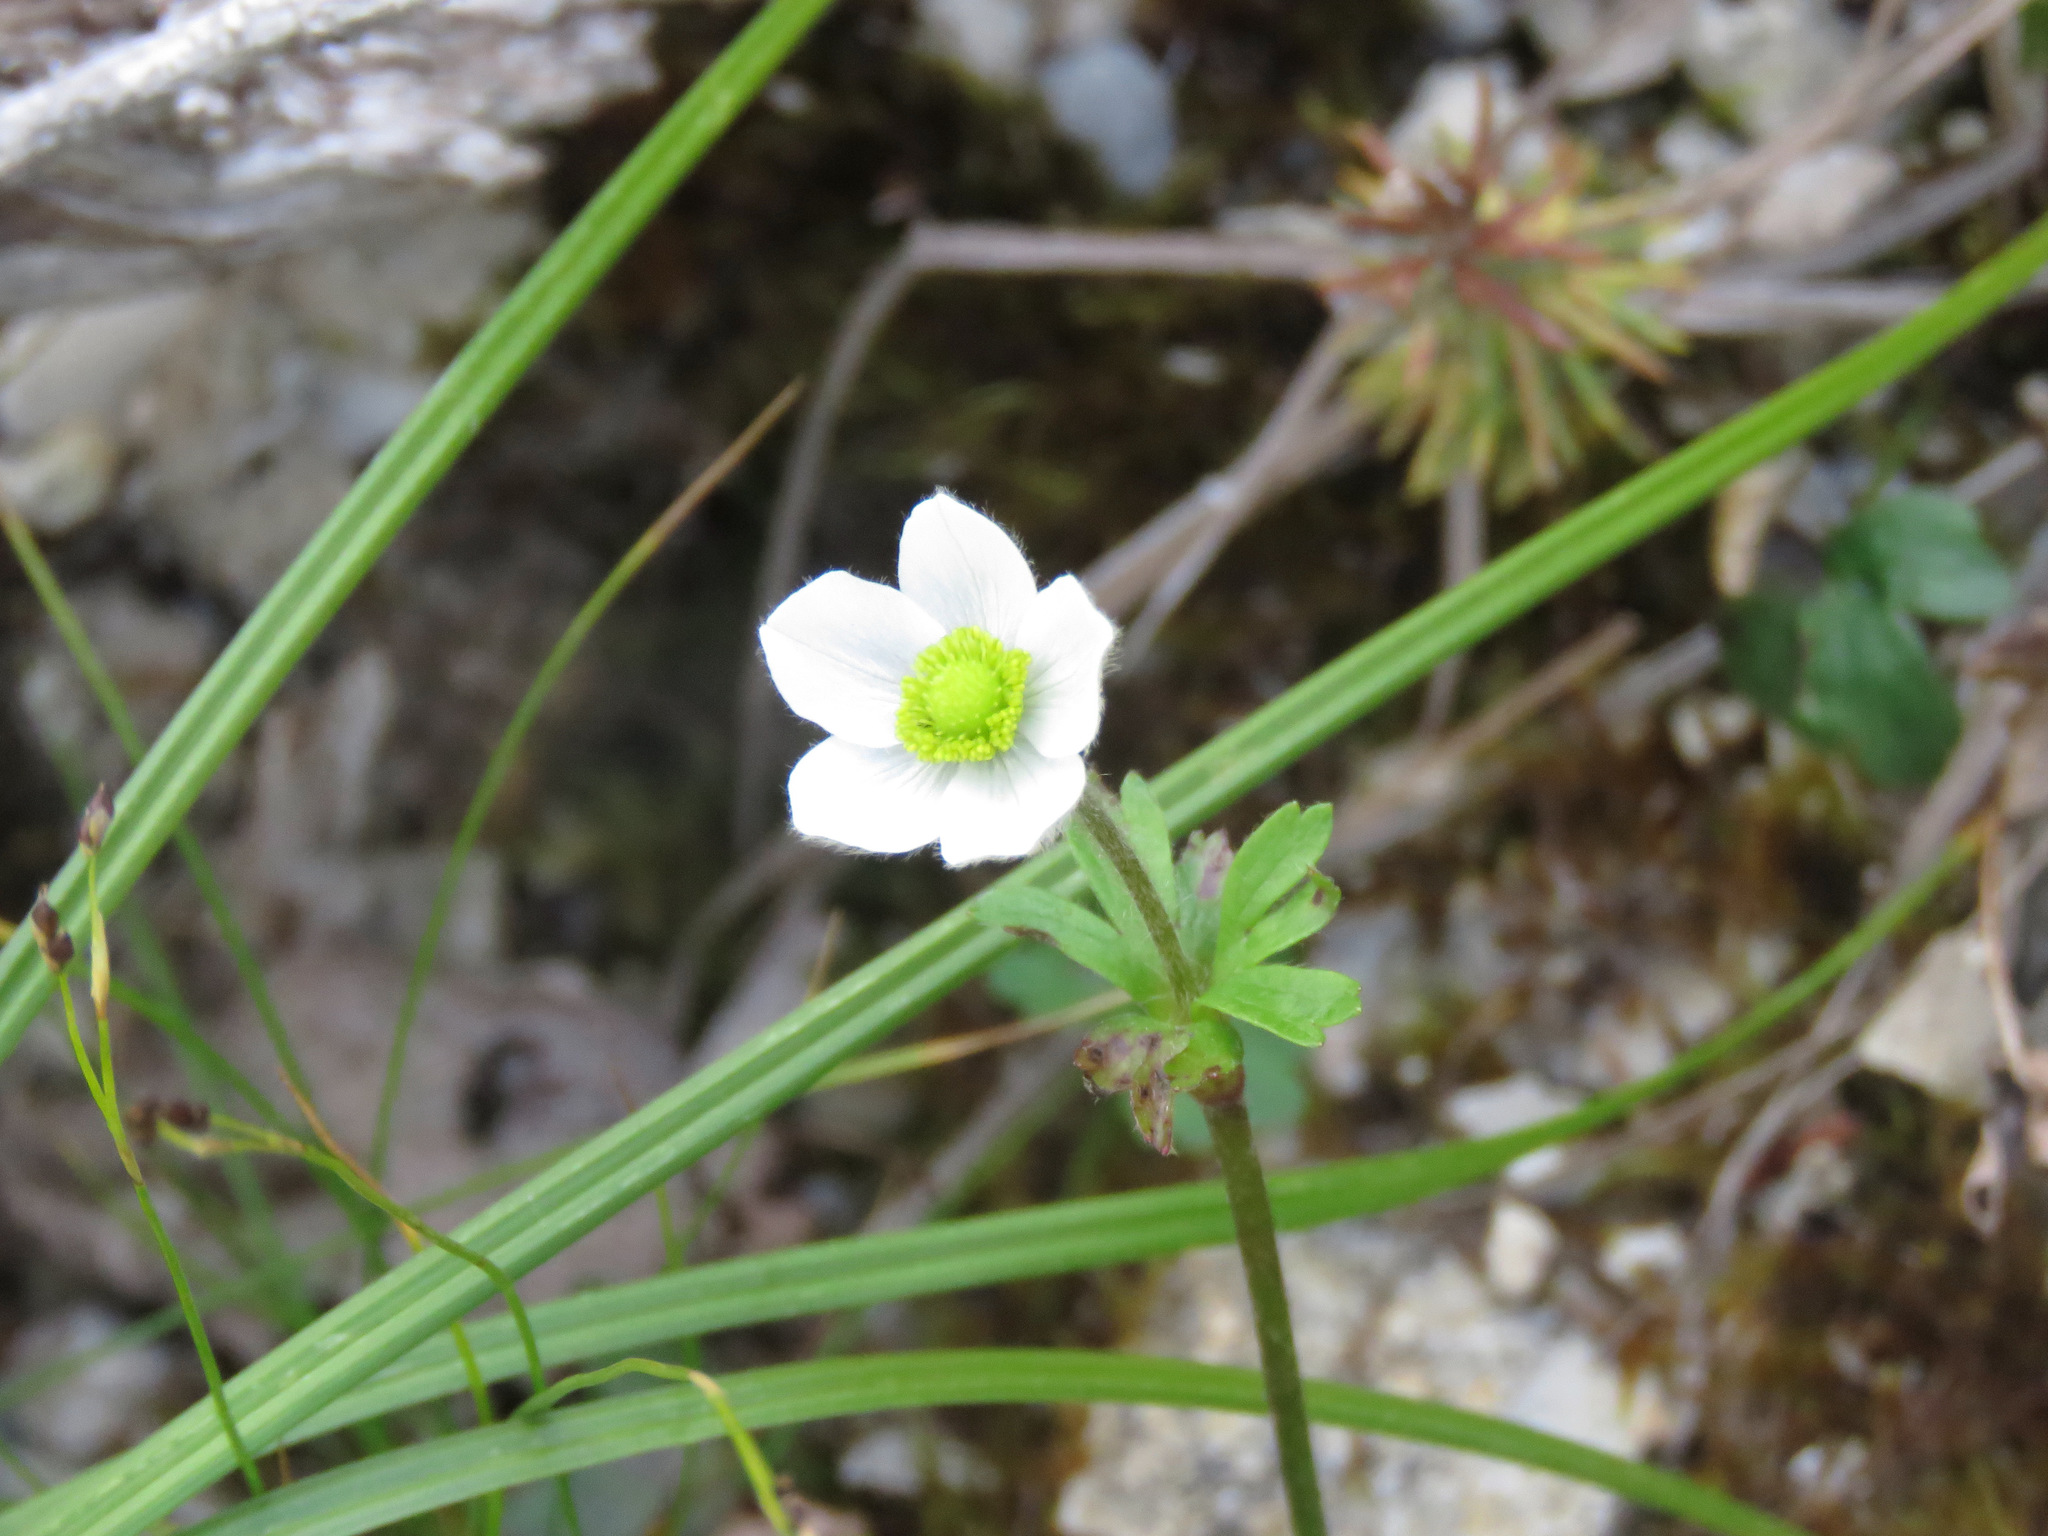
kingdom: Plantae
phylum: Tracheophyta
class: Magnoliopsida
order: Ranunculales
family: Ranunculaceae
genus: Anemone
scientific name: Anemone parviflora
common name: Northern anemone
